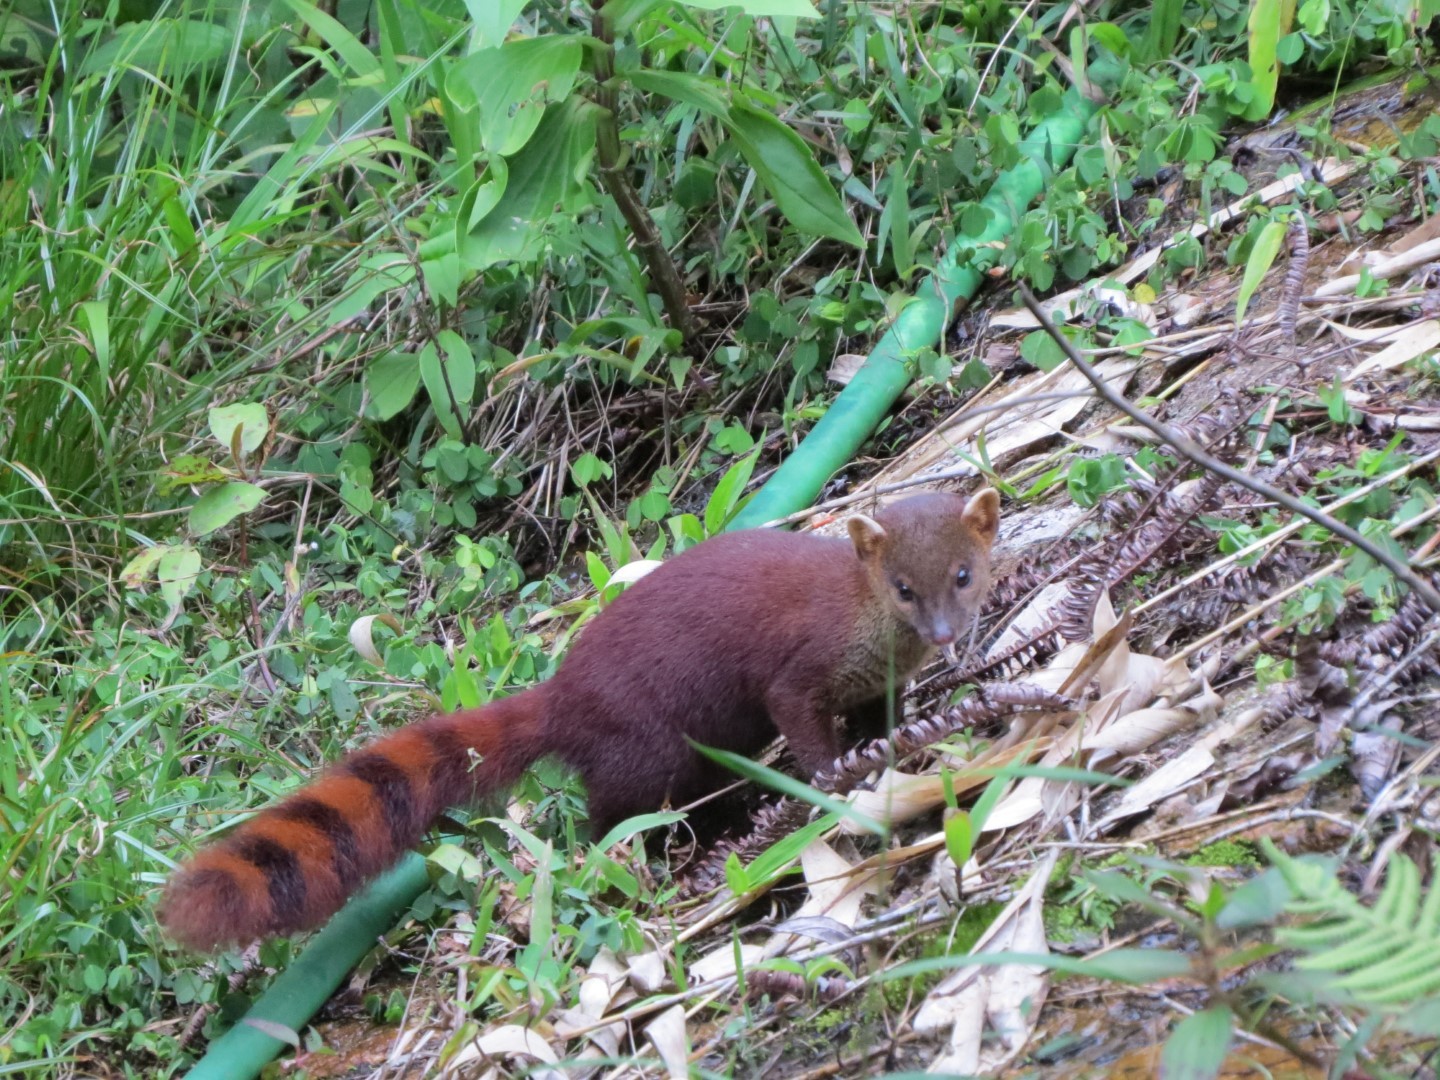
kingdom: Animalia
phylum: Chordata
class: Mammalia
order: Carnivora
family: Eupleridae
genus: Galidia
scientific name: Galidia elegans
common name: Ring-tailed mongoose
